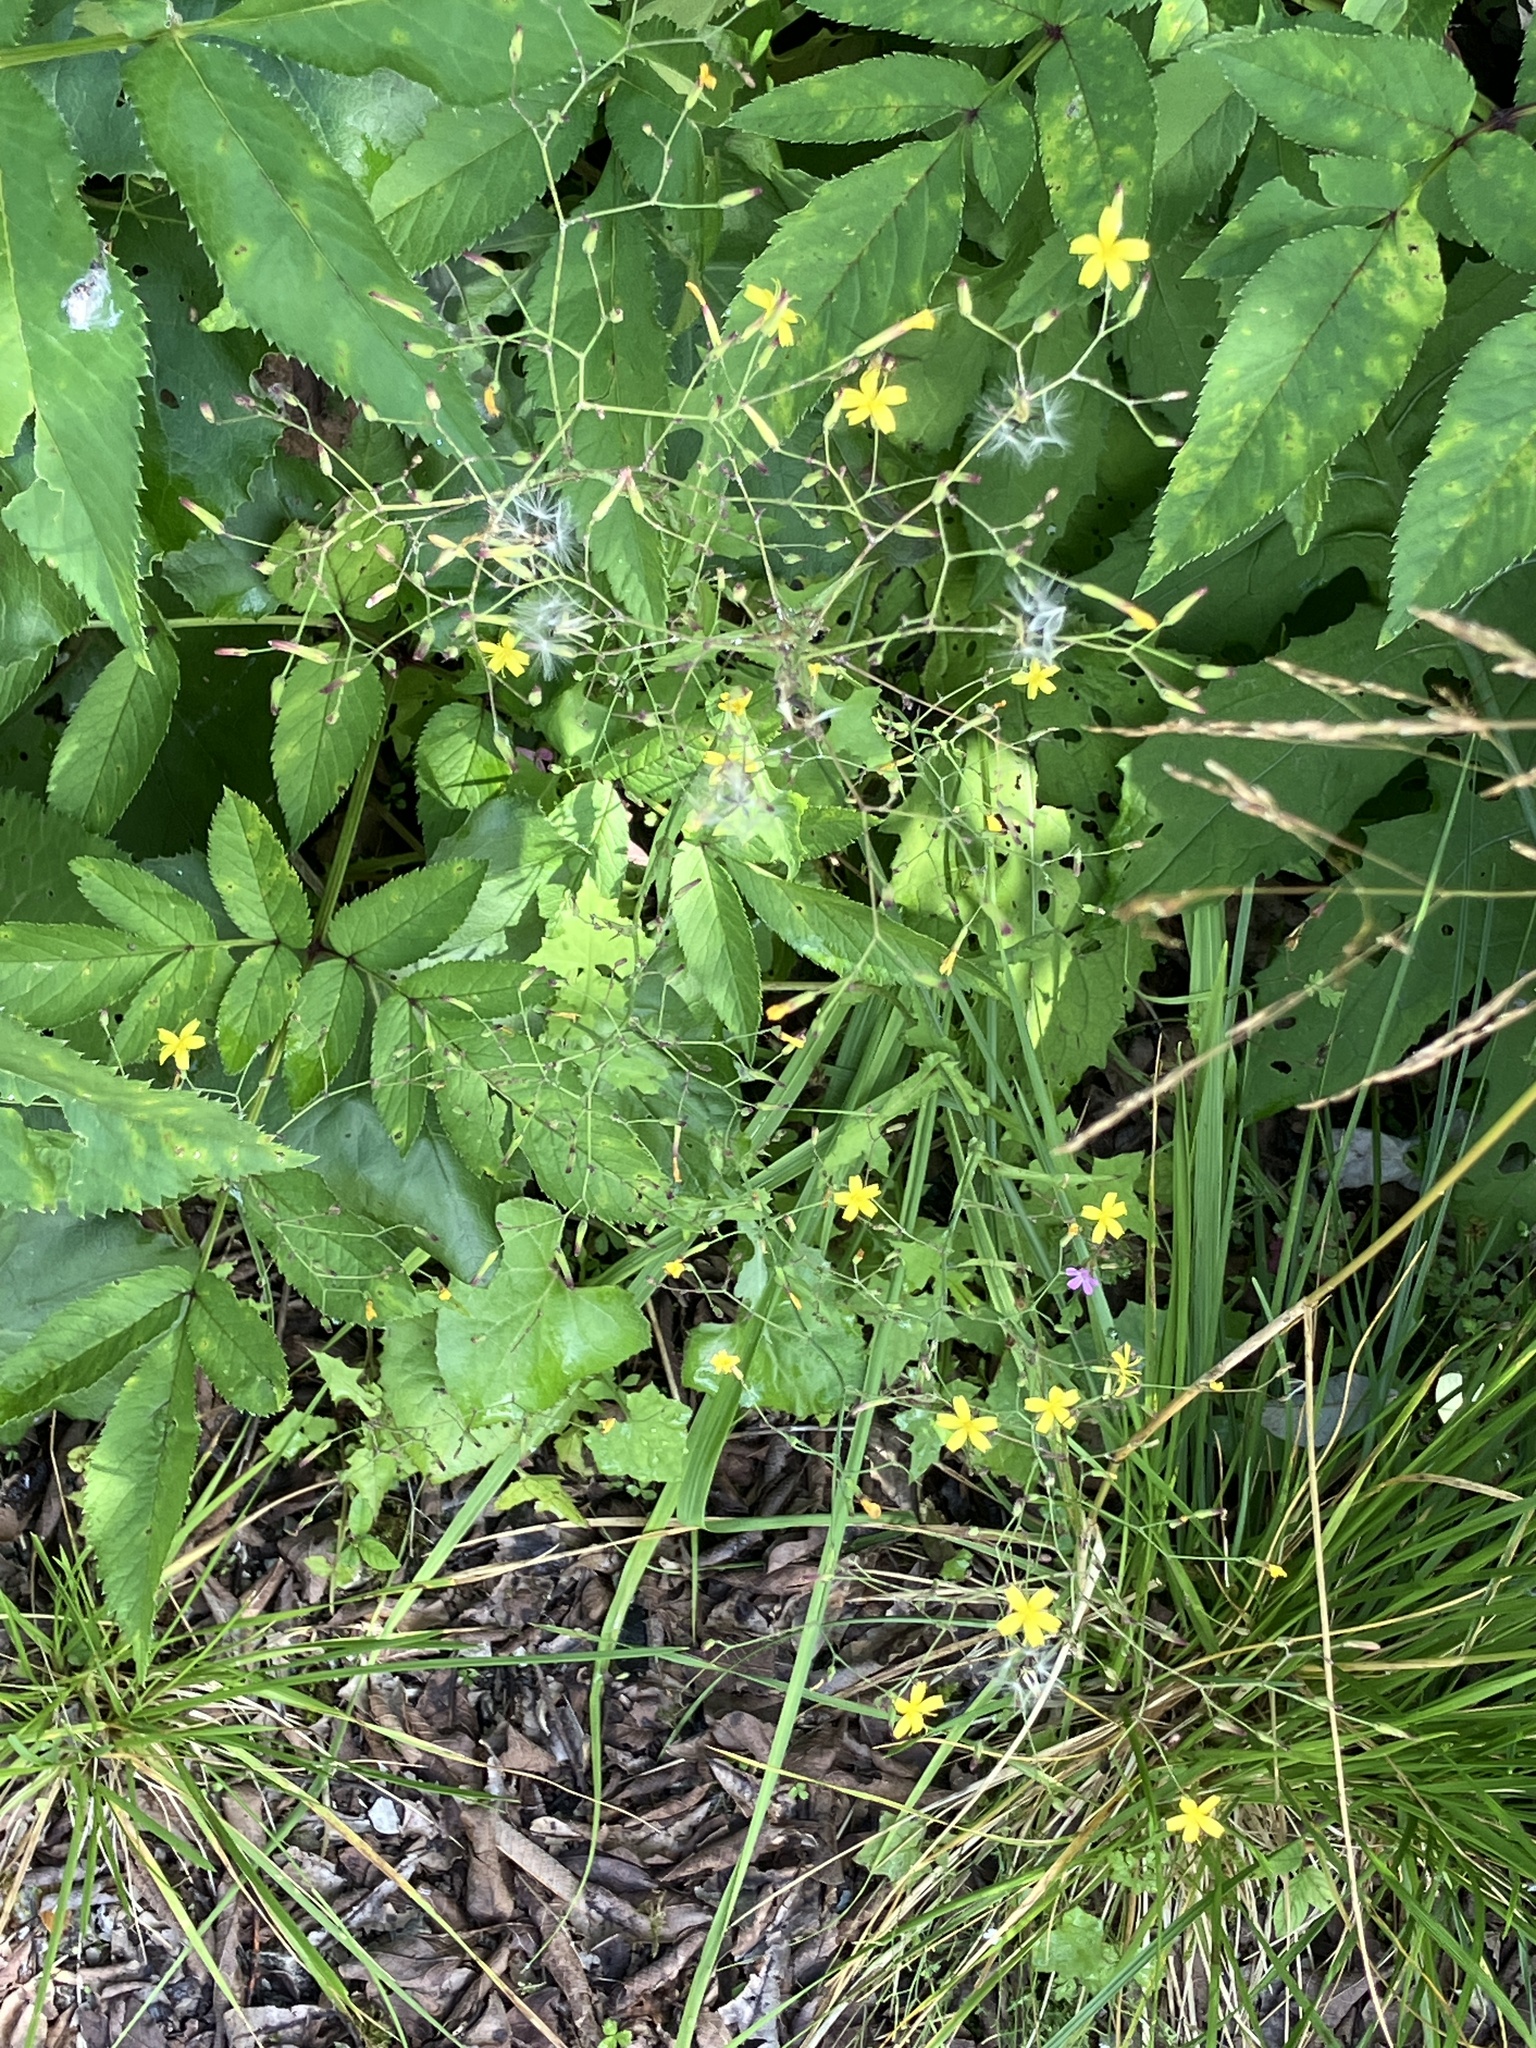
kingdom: Plantae
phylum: Tracheophyta
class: Magnoliopsida
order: Asterales
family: Asteraceae
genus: Mycelis
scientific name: Mycelis muralis
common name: Wall lettuce
